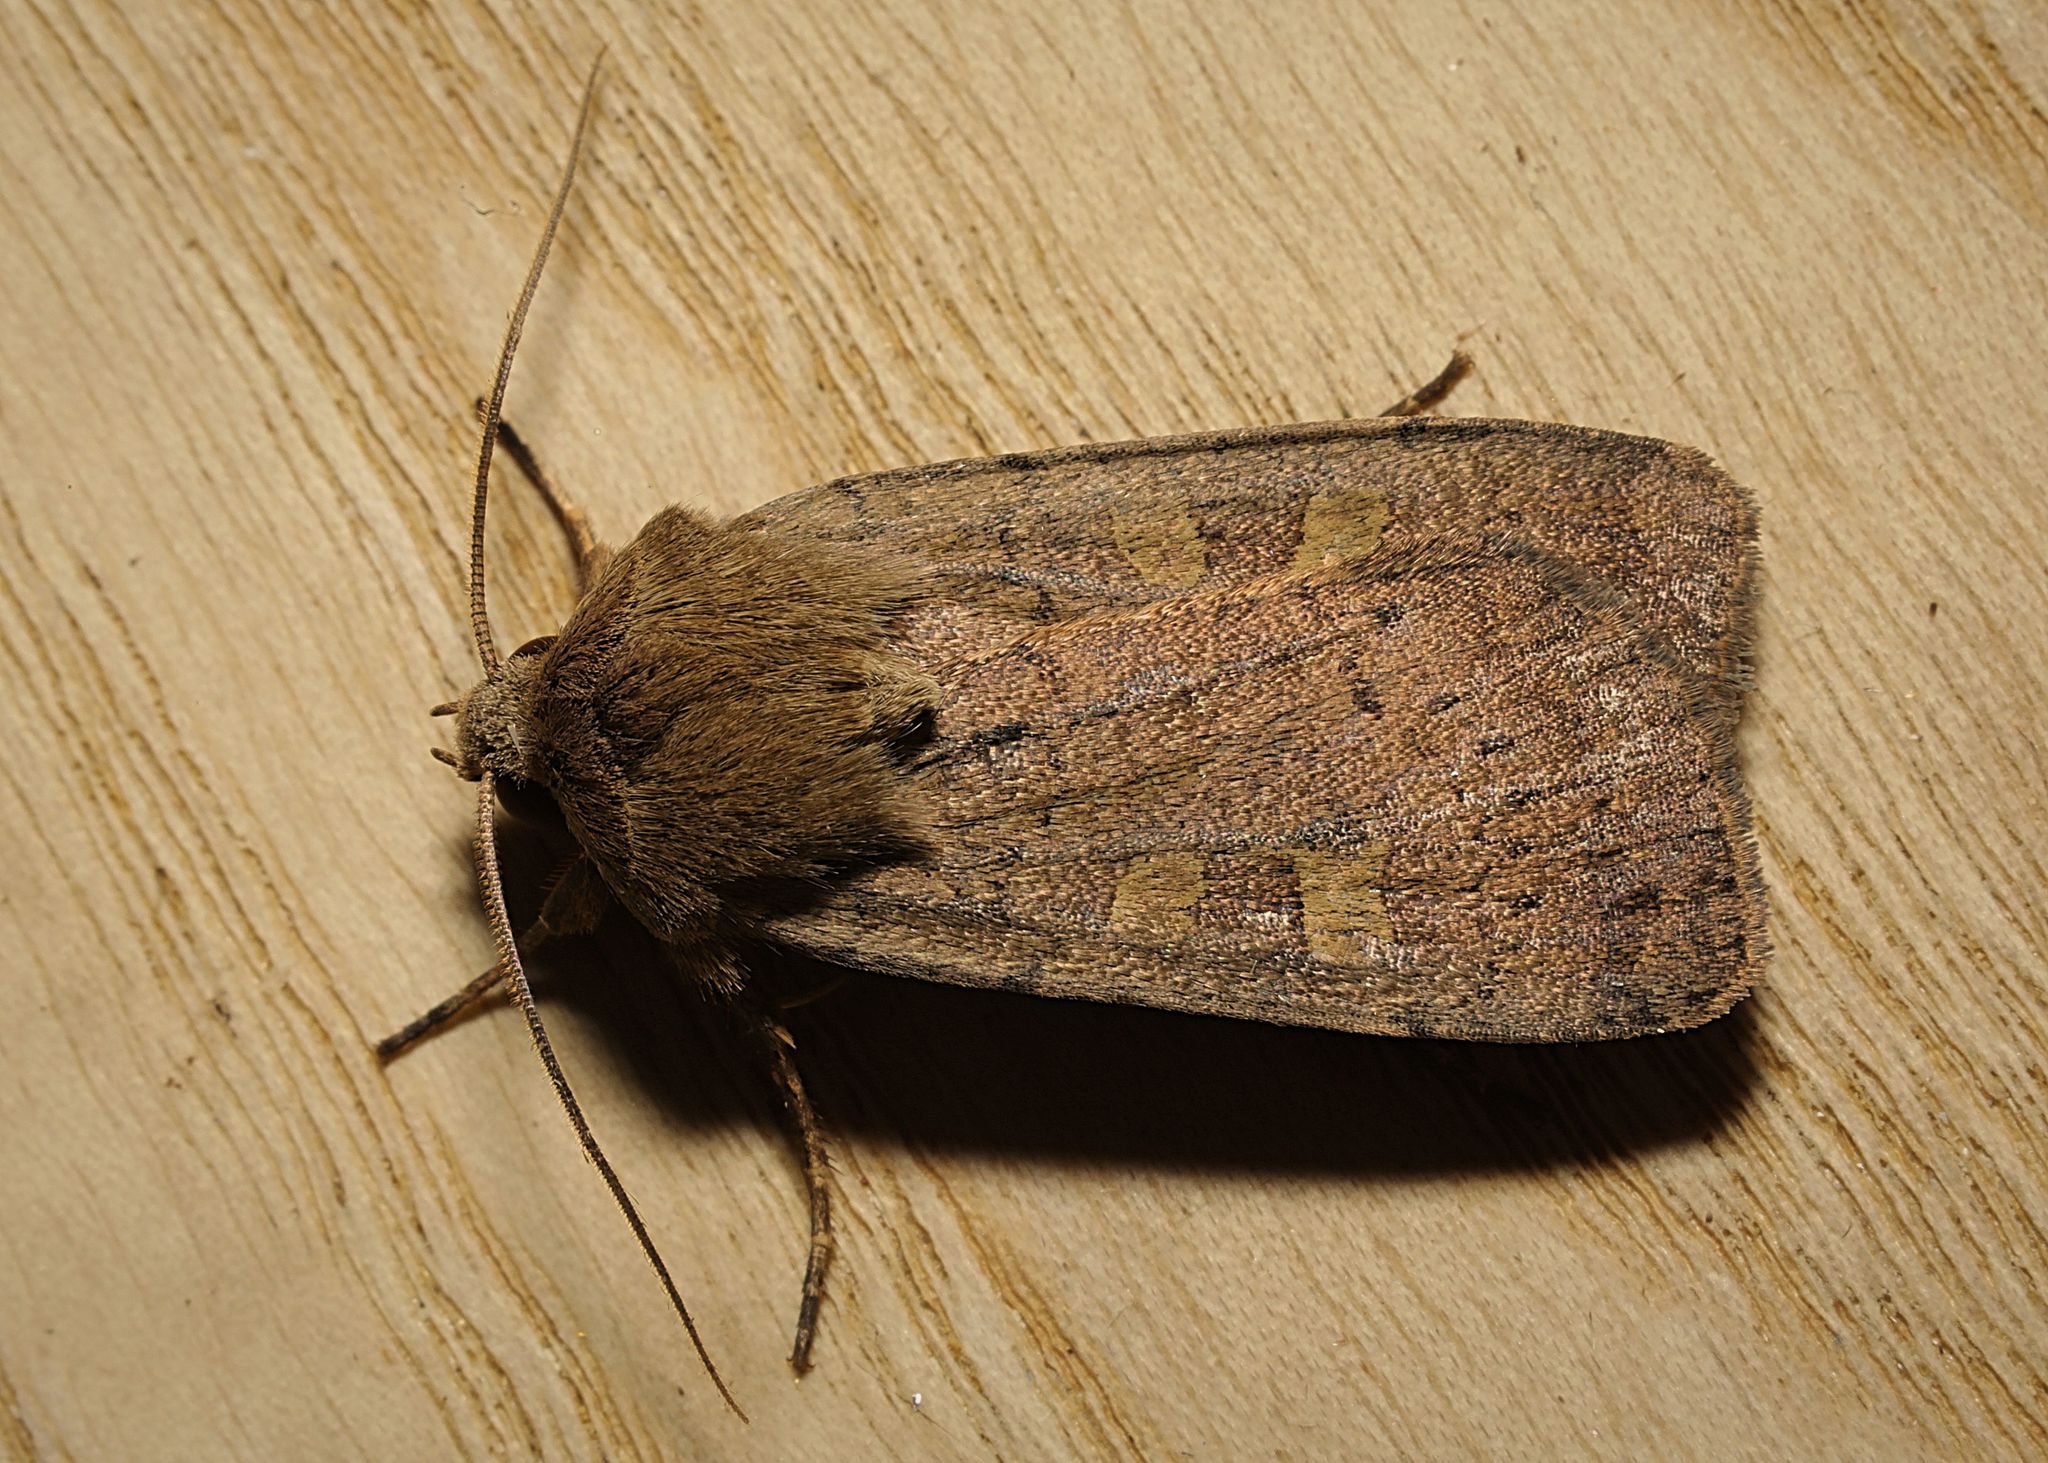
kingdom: Animalia
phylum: Arthropoda
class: Insecta
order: Lepidoptera
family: Noctuidae
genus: Xestia
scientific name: Xestia xanthographa
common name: Square-spot rustic
